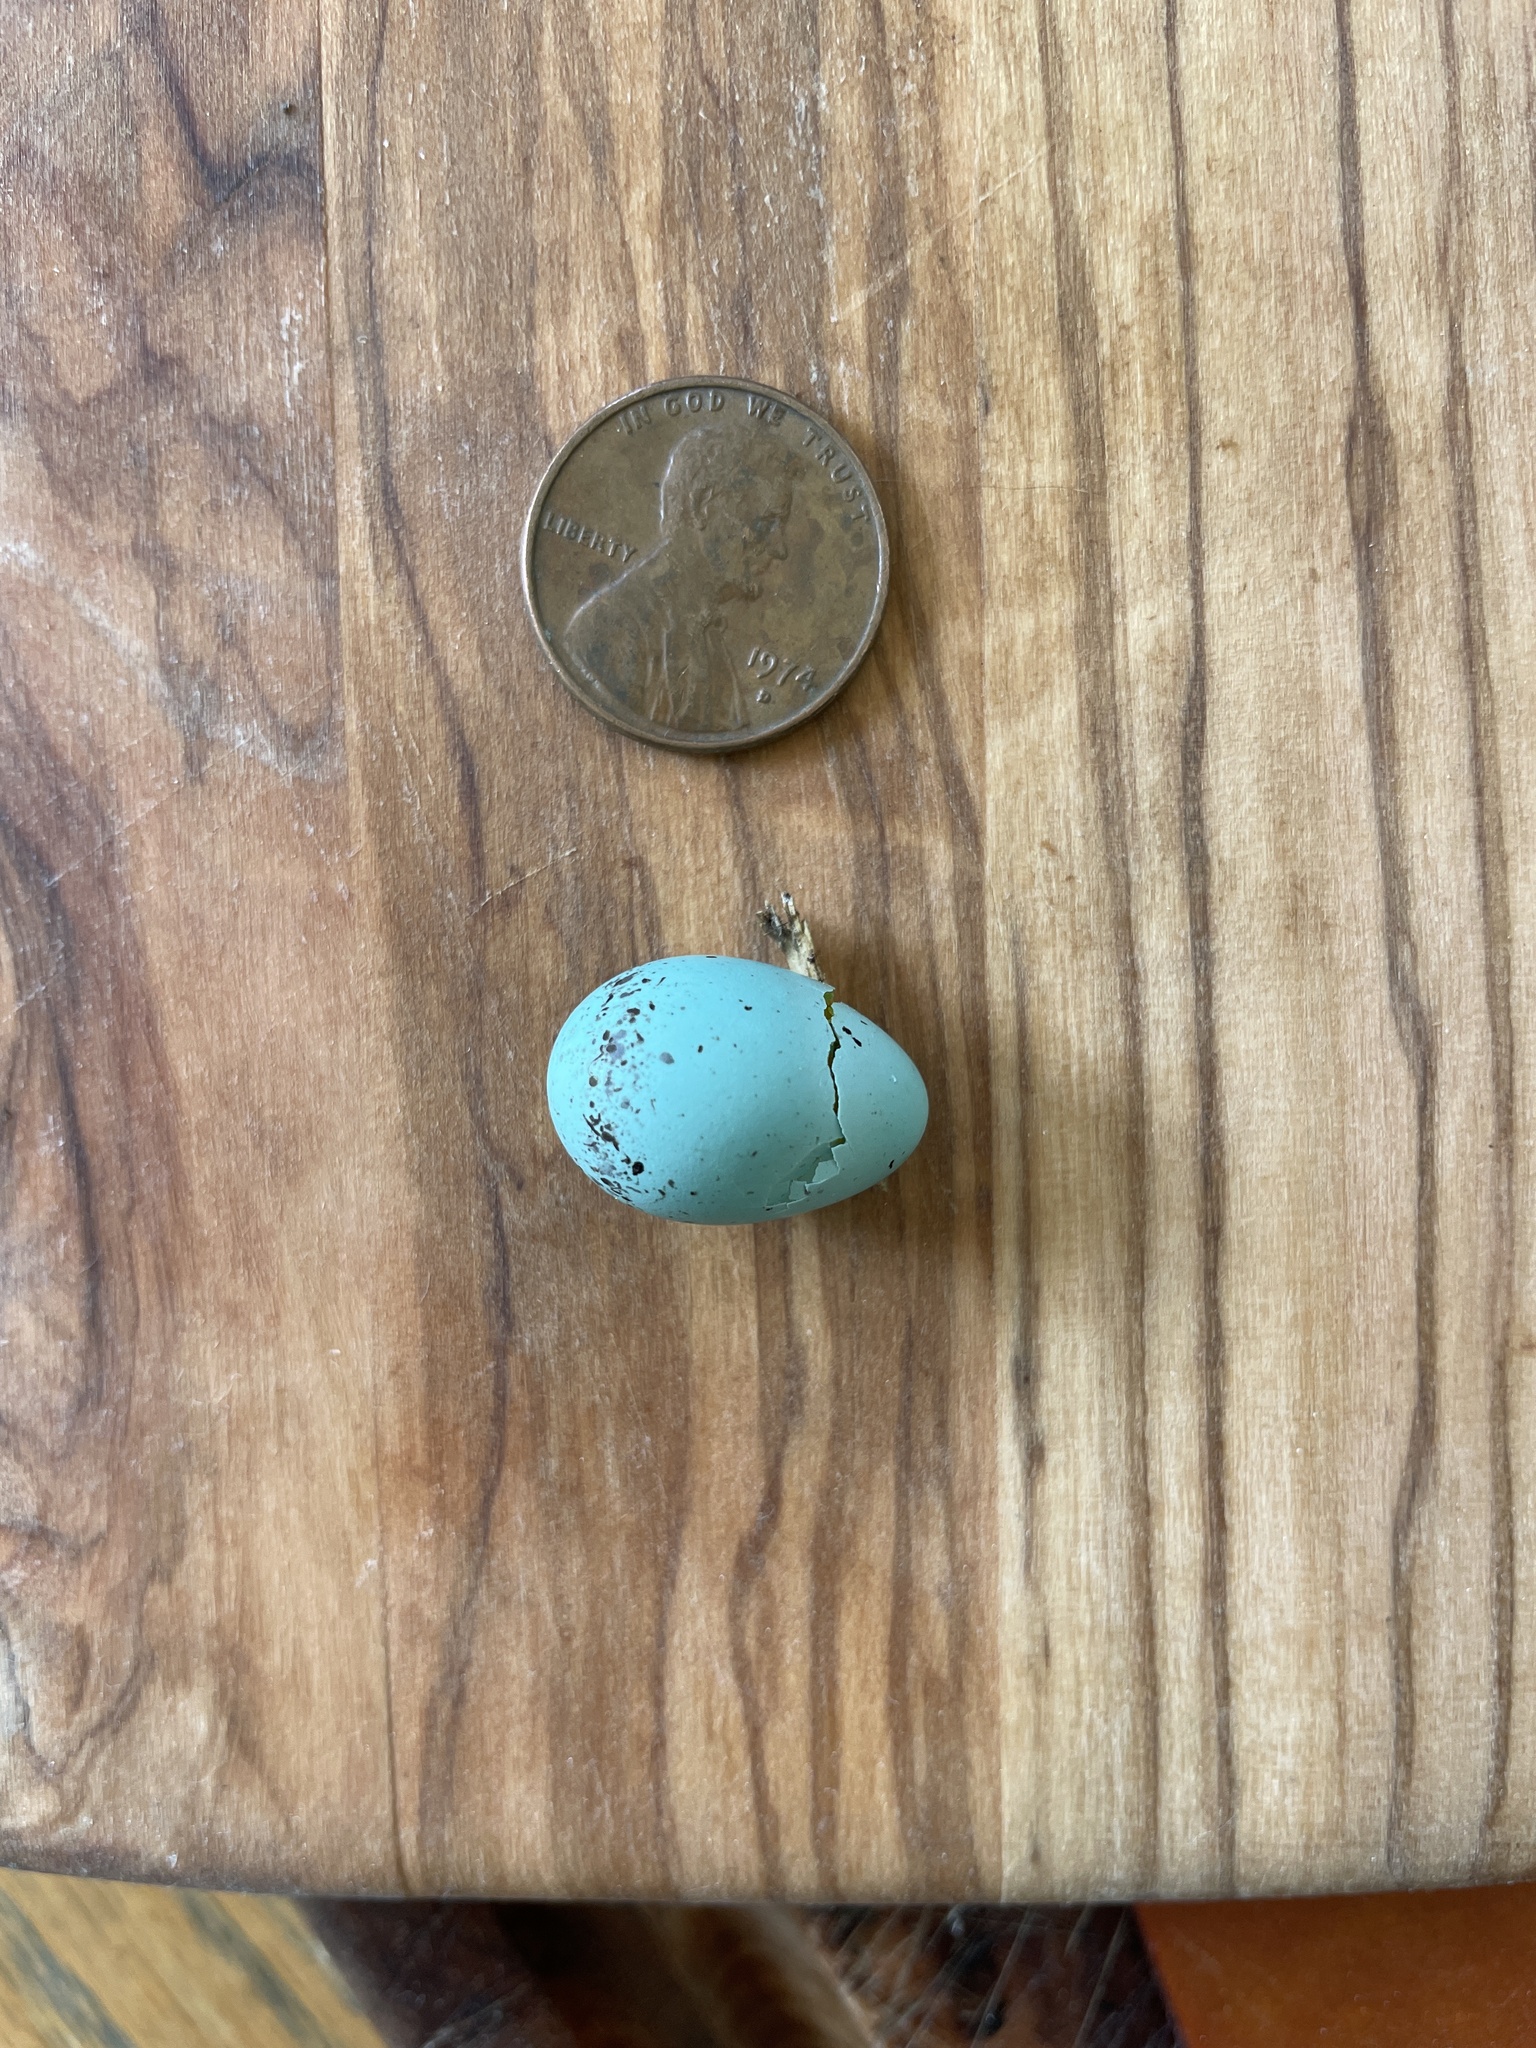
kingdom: Animalia
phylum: Chordata
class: Aves
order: Passeriformes
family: Passerellidae
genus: Spizella
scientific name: Spizella passerina
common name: Chipping sparrow
